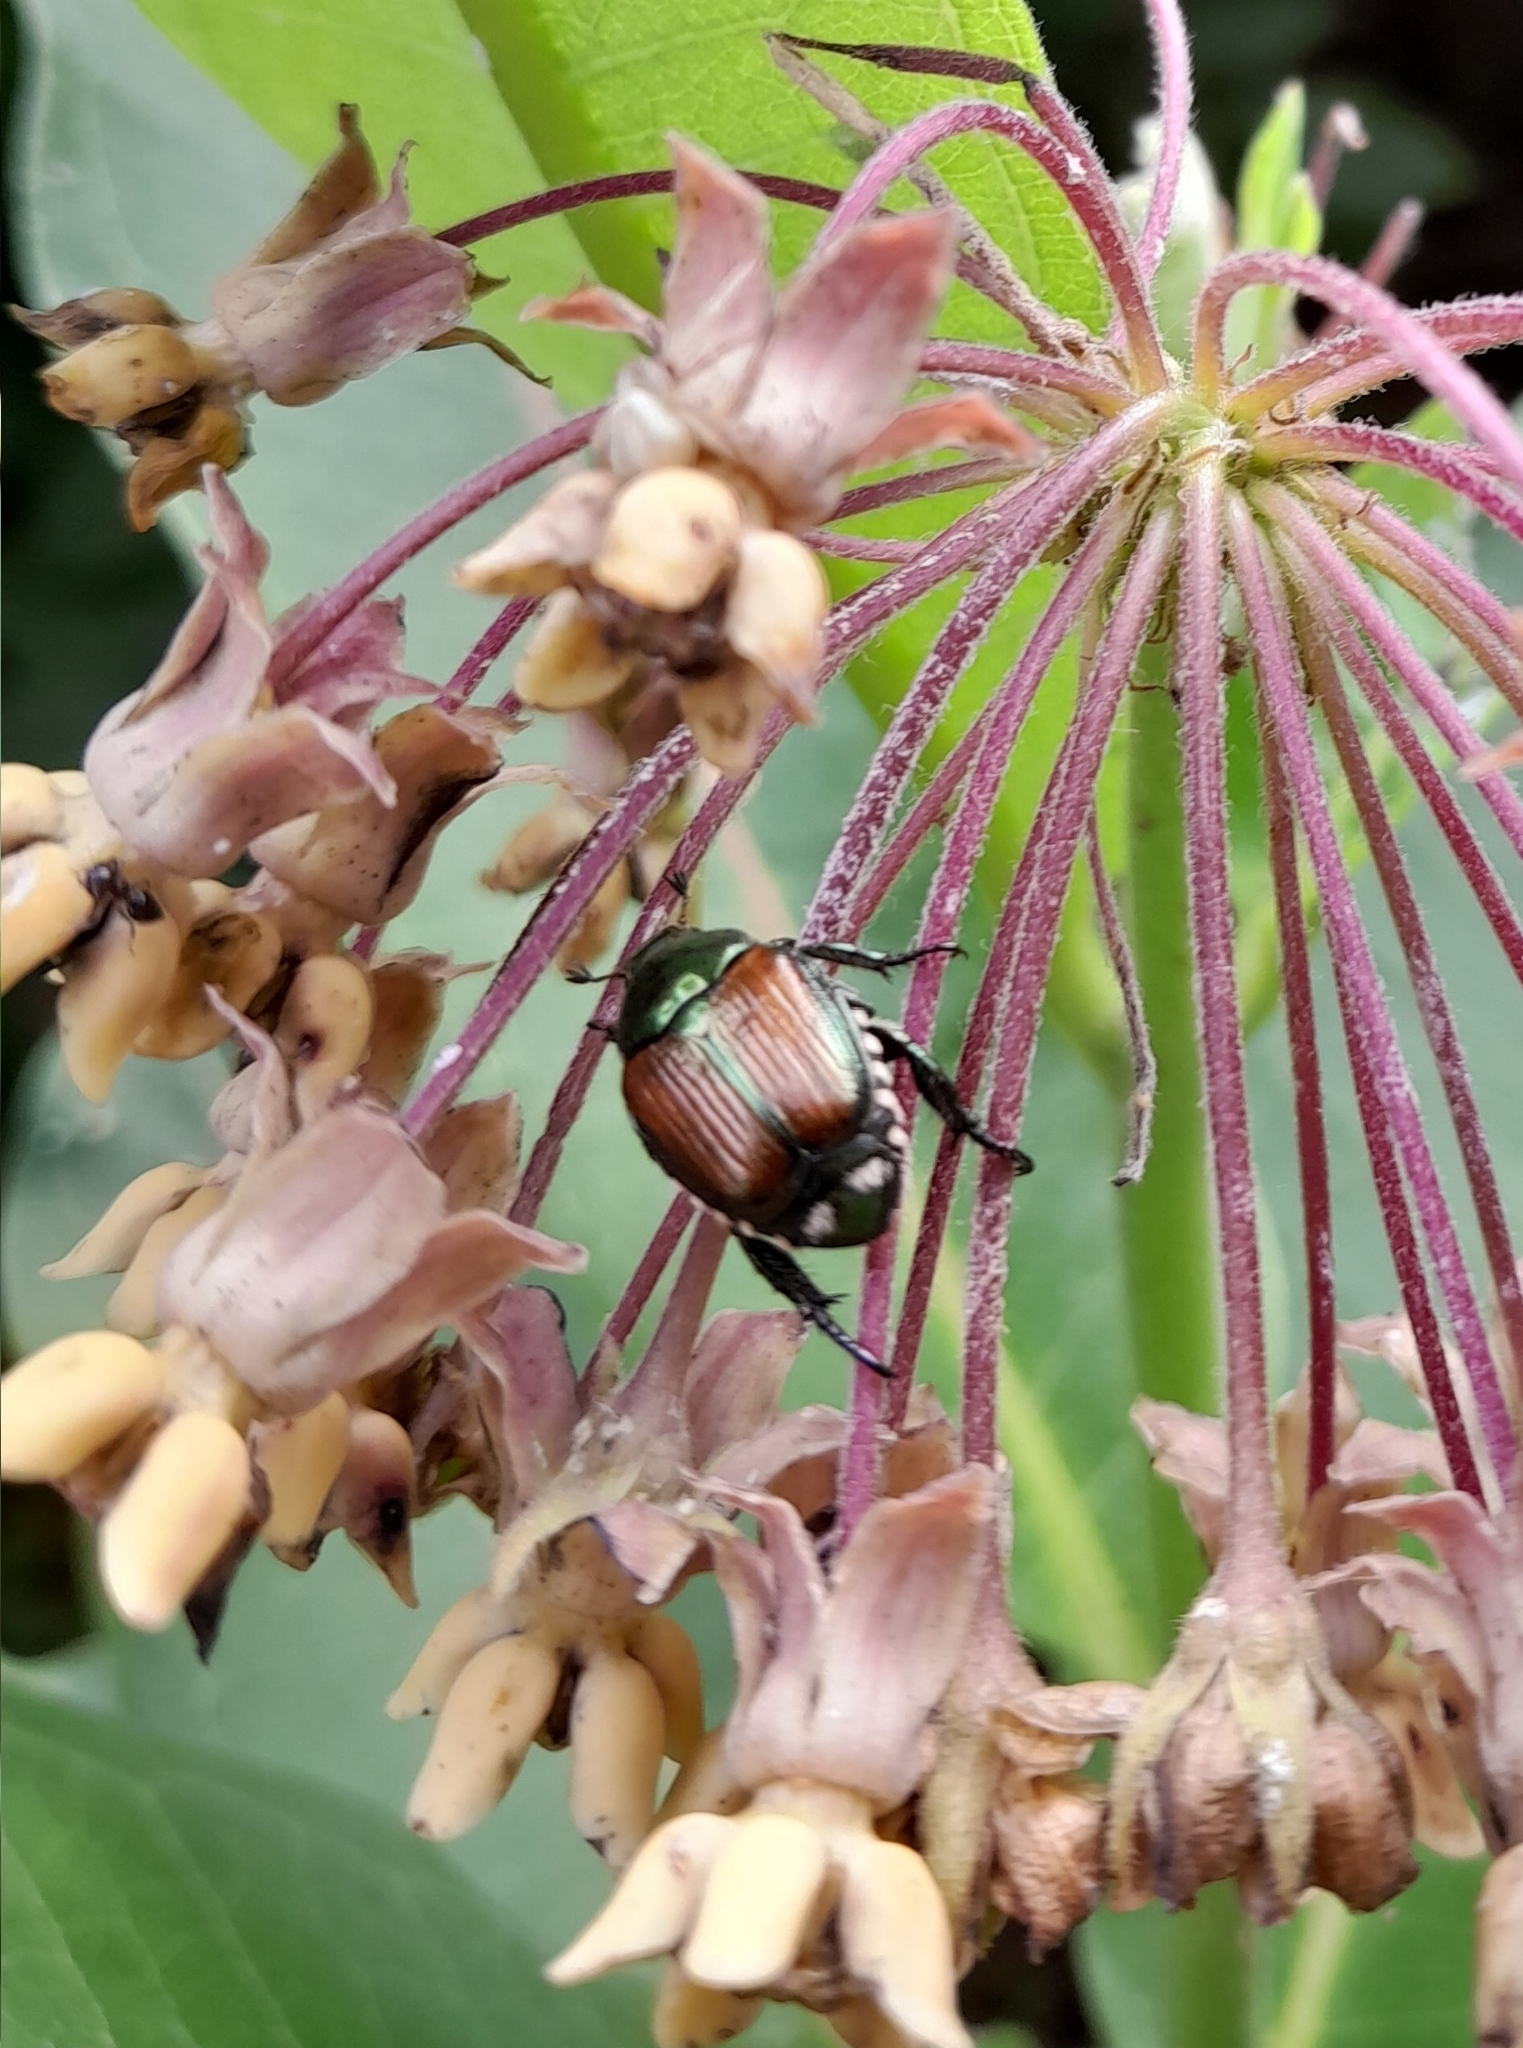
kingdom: Animalia
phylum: Arthropoda
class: Insecta
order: Coleoptera
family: Scarabaeidae
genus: Popillia
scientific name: Popillia japonica
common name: Japanese beetle
